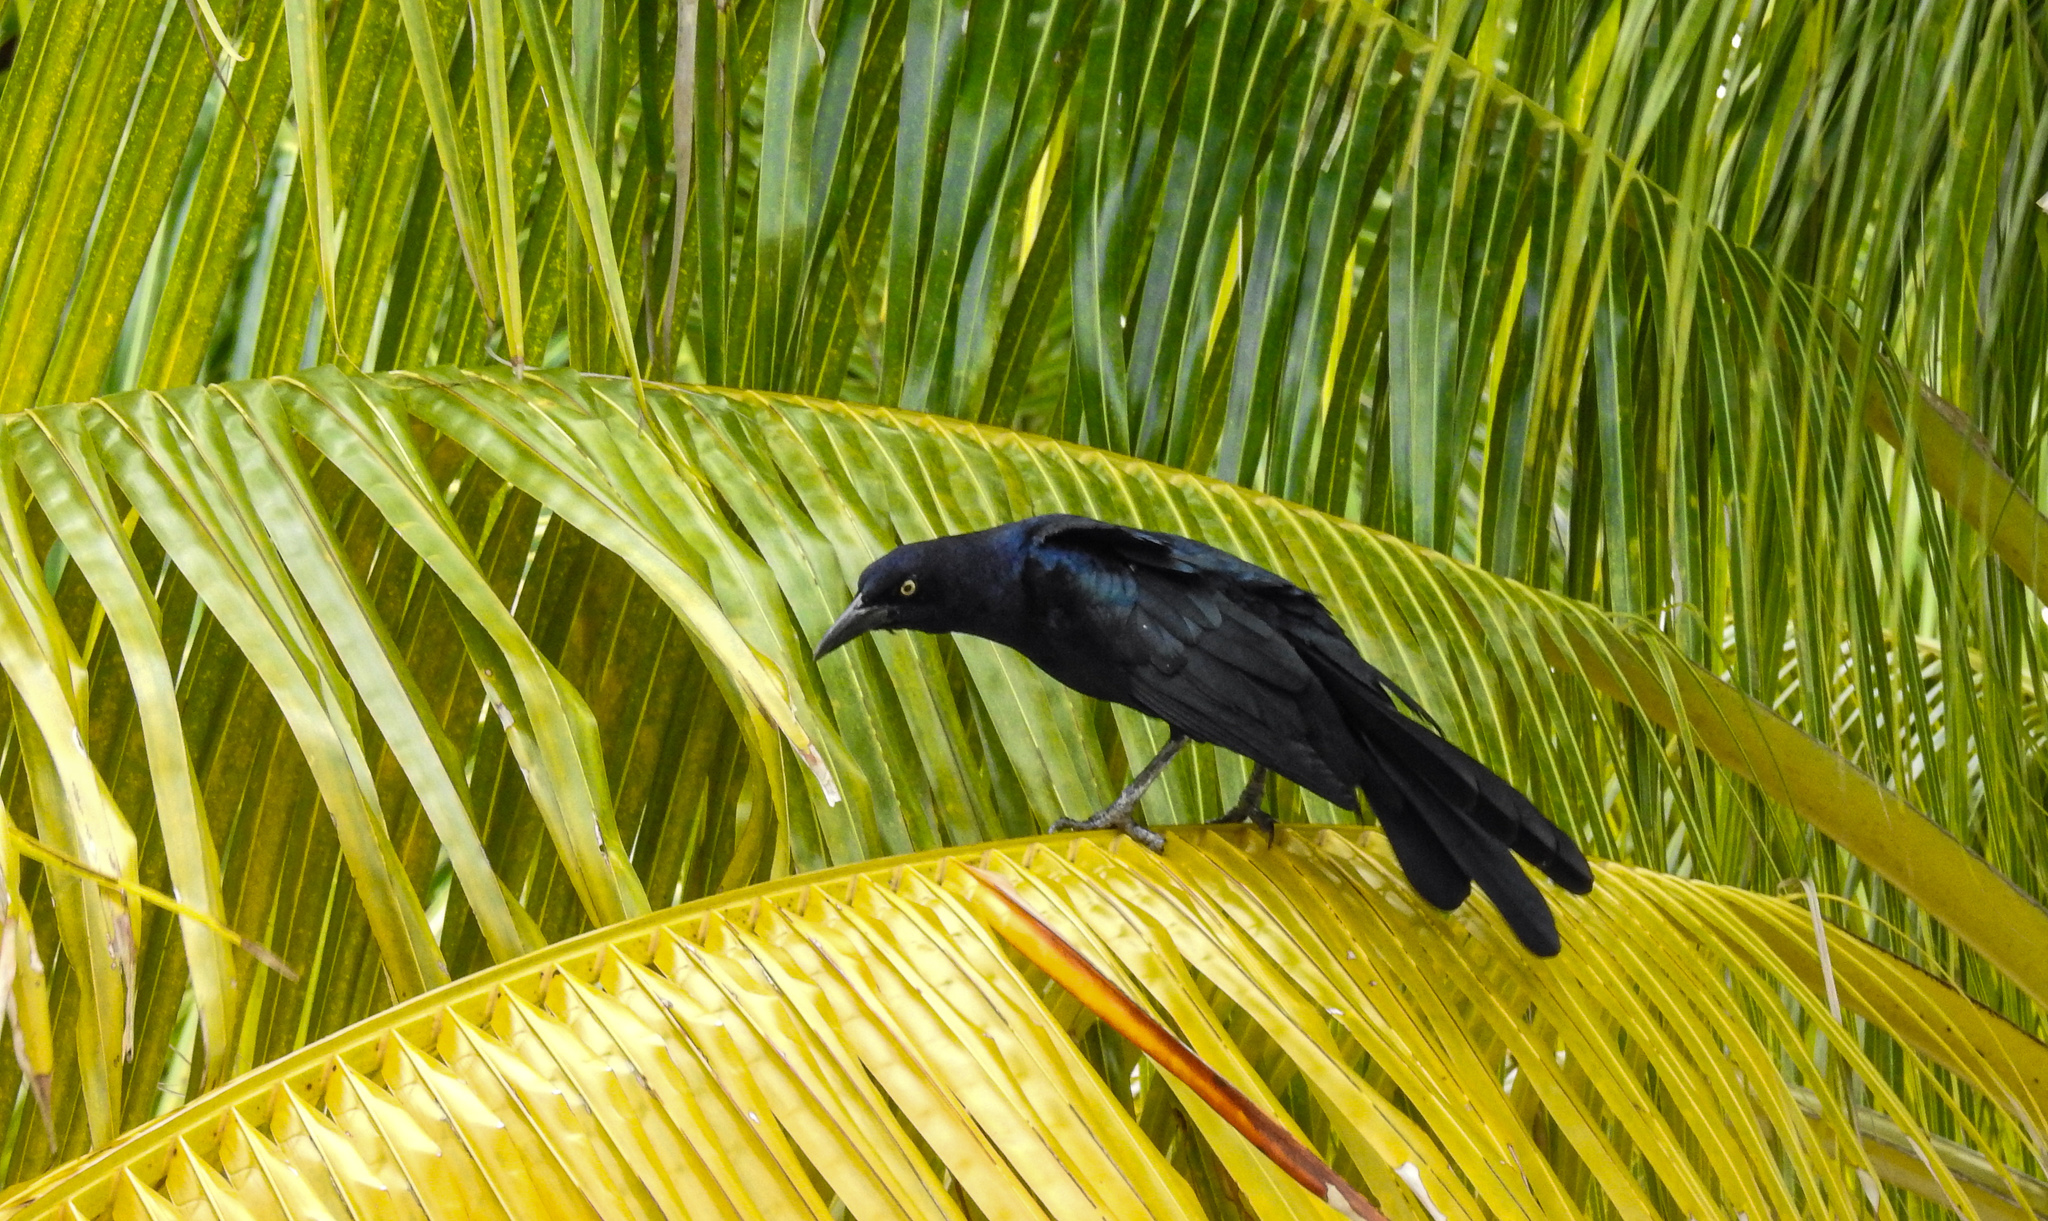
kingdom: Animalia
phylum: Chordata
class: Aves
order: Passeriformes
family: Icteridae
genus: Quiscalus
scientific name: Quiscalus mexicanus
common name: Great-tailed grackle
